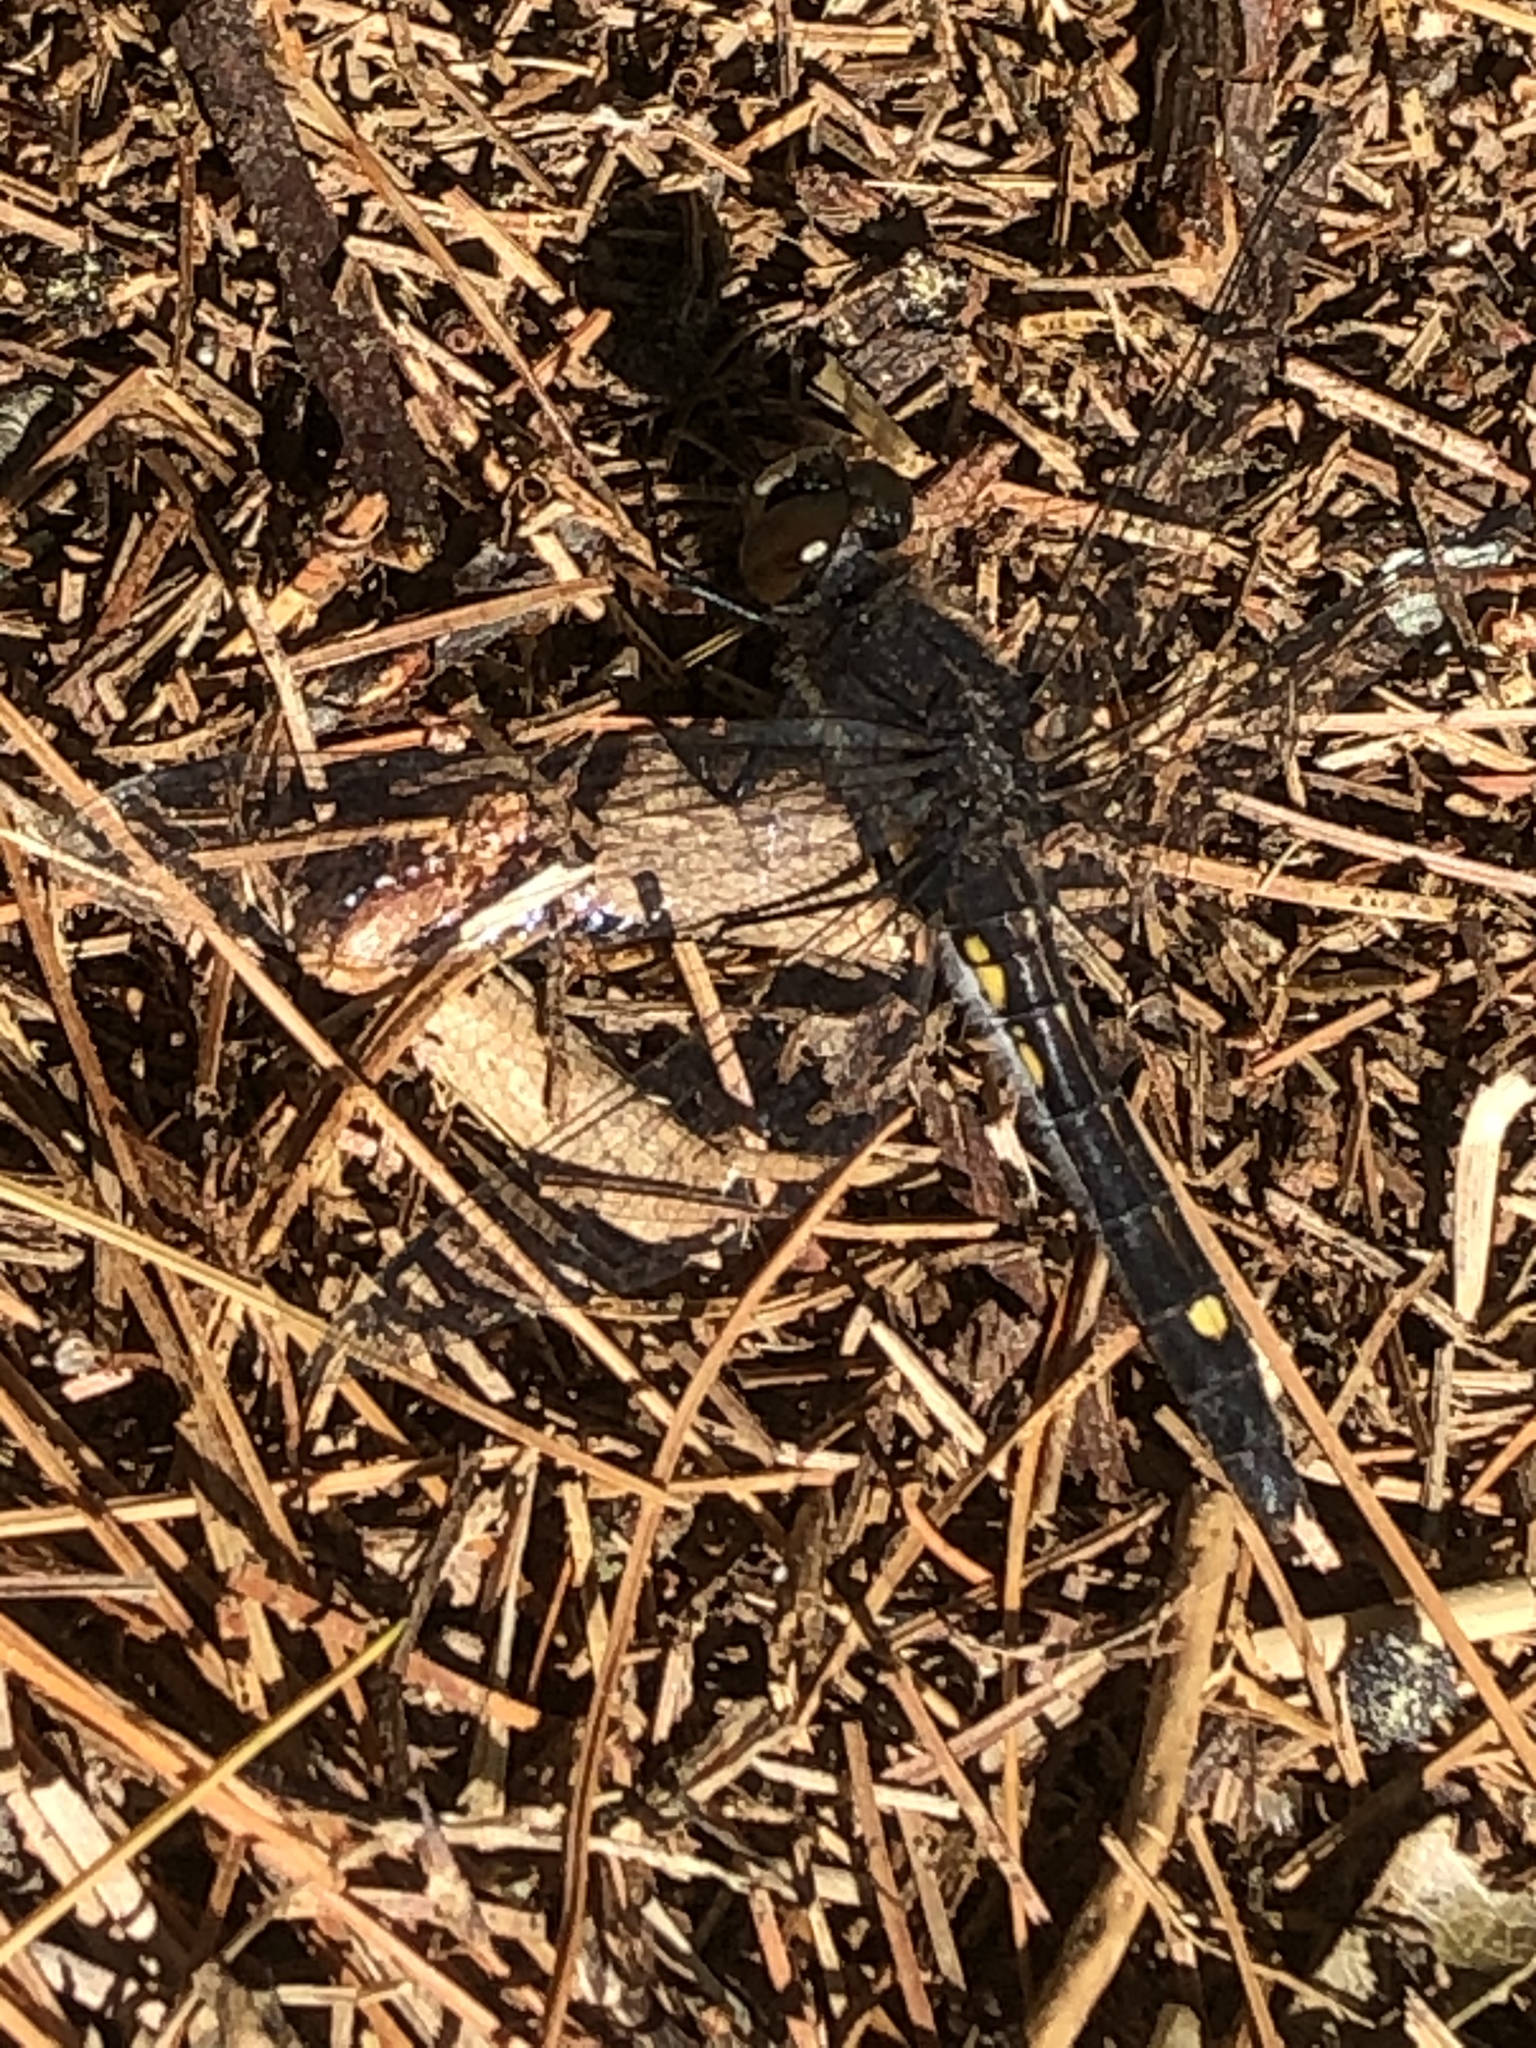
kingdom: Animalia
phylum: Arthropoda
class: Insecta
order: Odonata
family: Libellulidae
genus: Leucorrhinia
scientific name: Leucorrhinia intacta
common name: Dot-tailed whiteface
